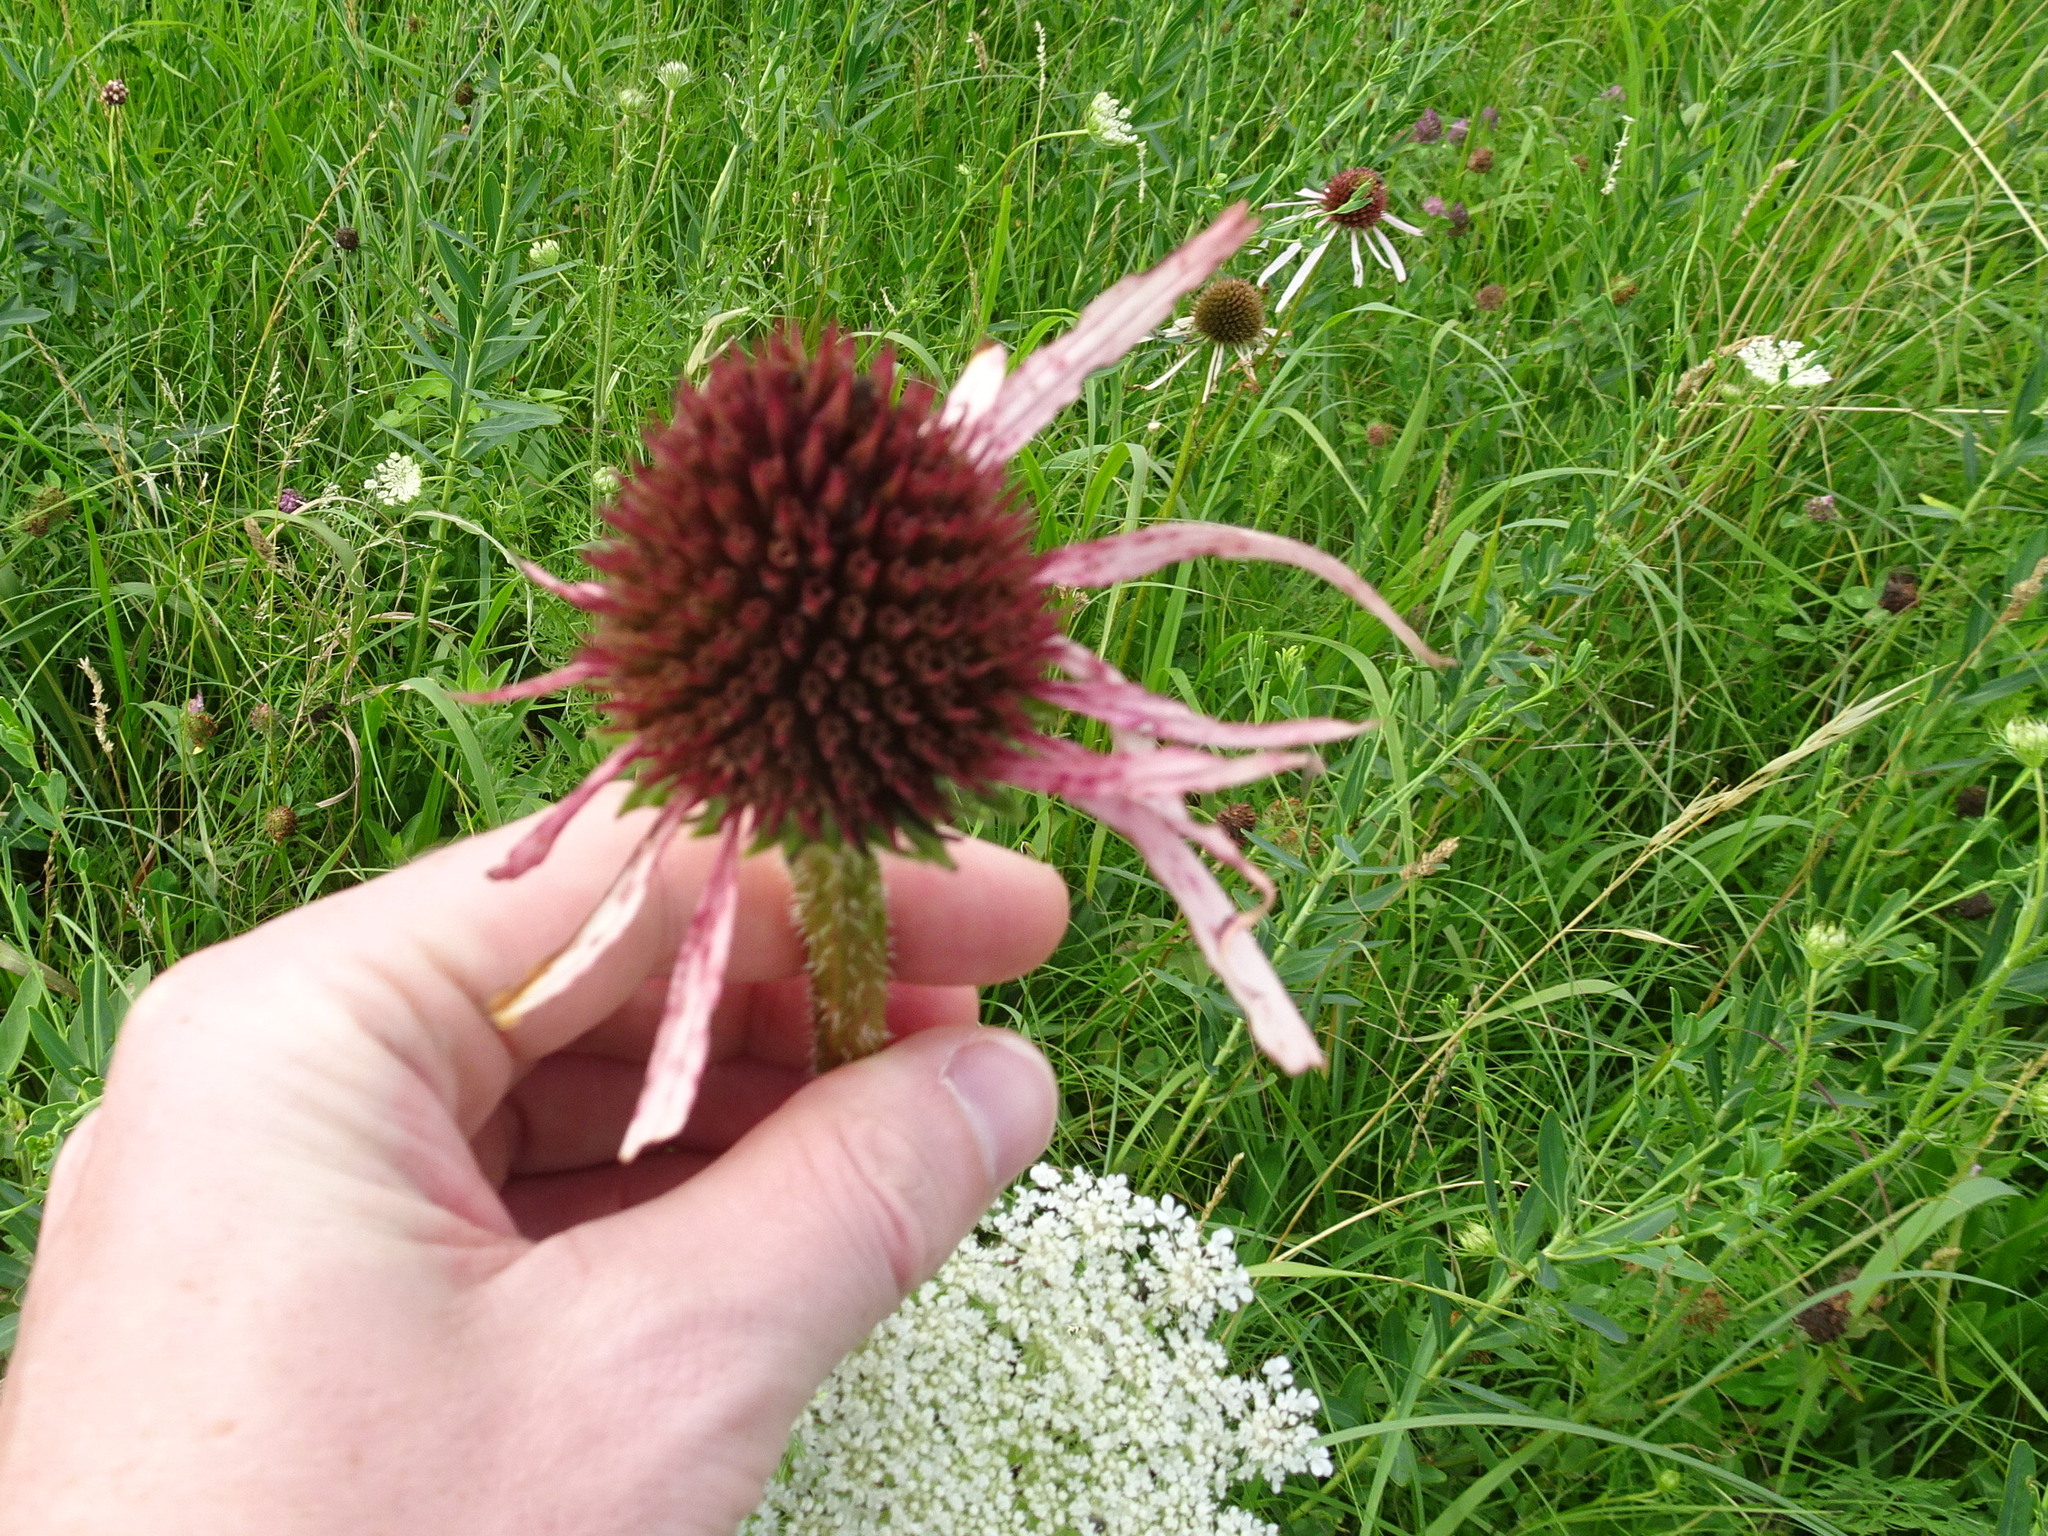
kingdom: Plantae
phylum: Tracheophyta
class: Magnoliopsida
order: Asterales
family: Asteraceae
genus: Echinacea
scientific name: Echinacea pallida
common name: Pale echinacea
